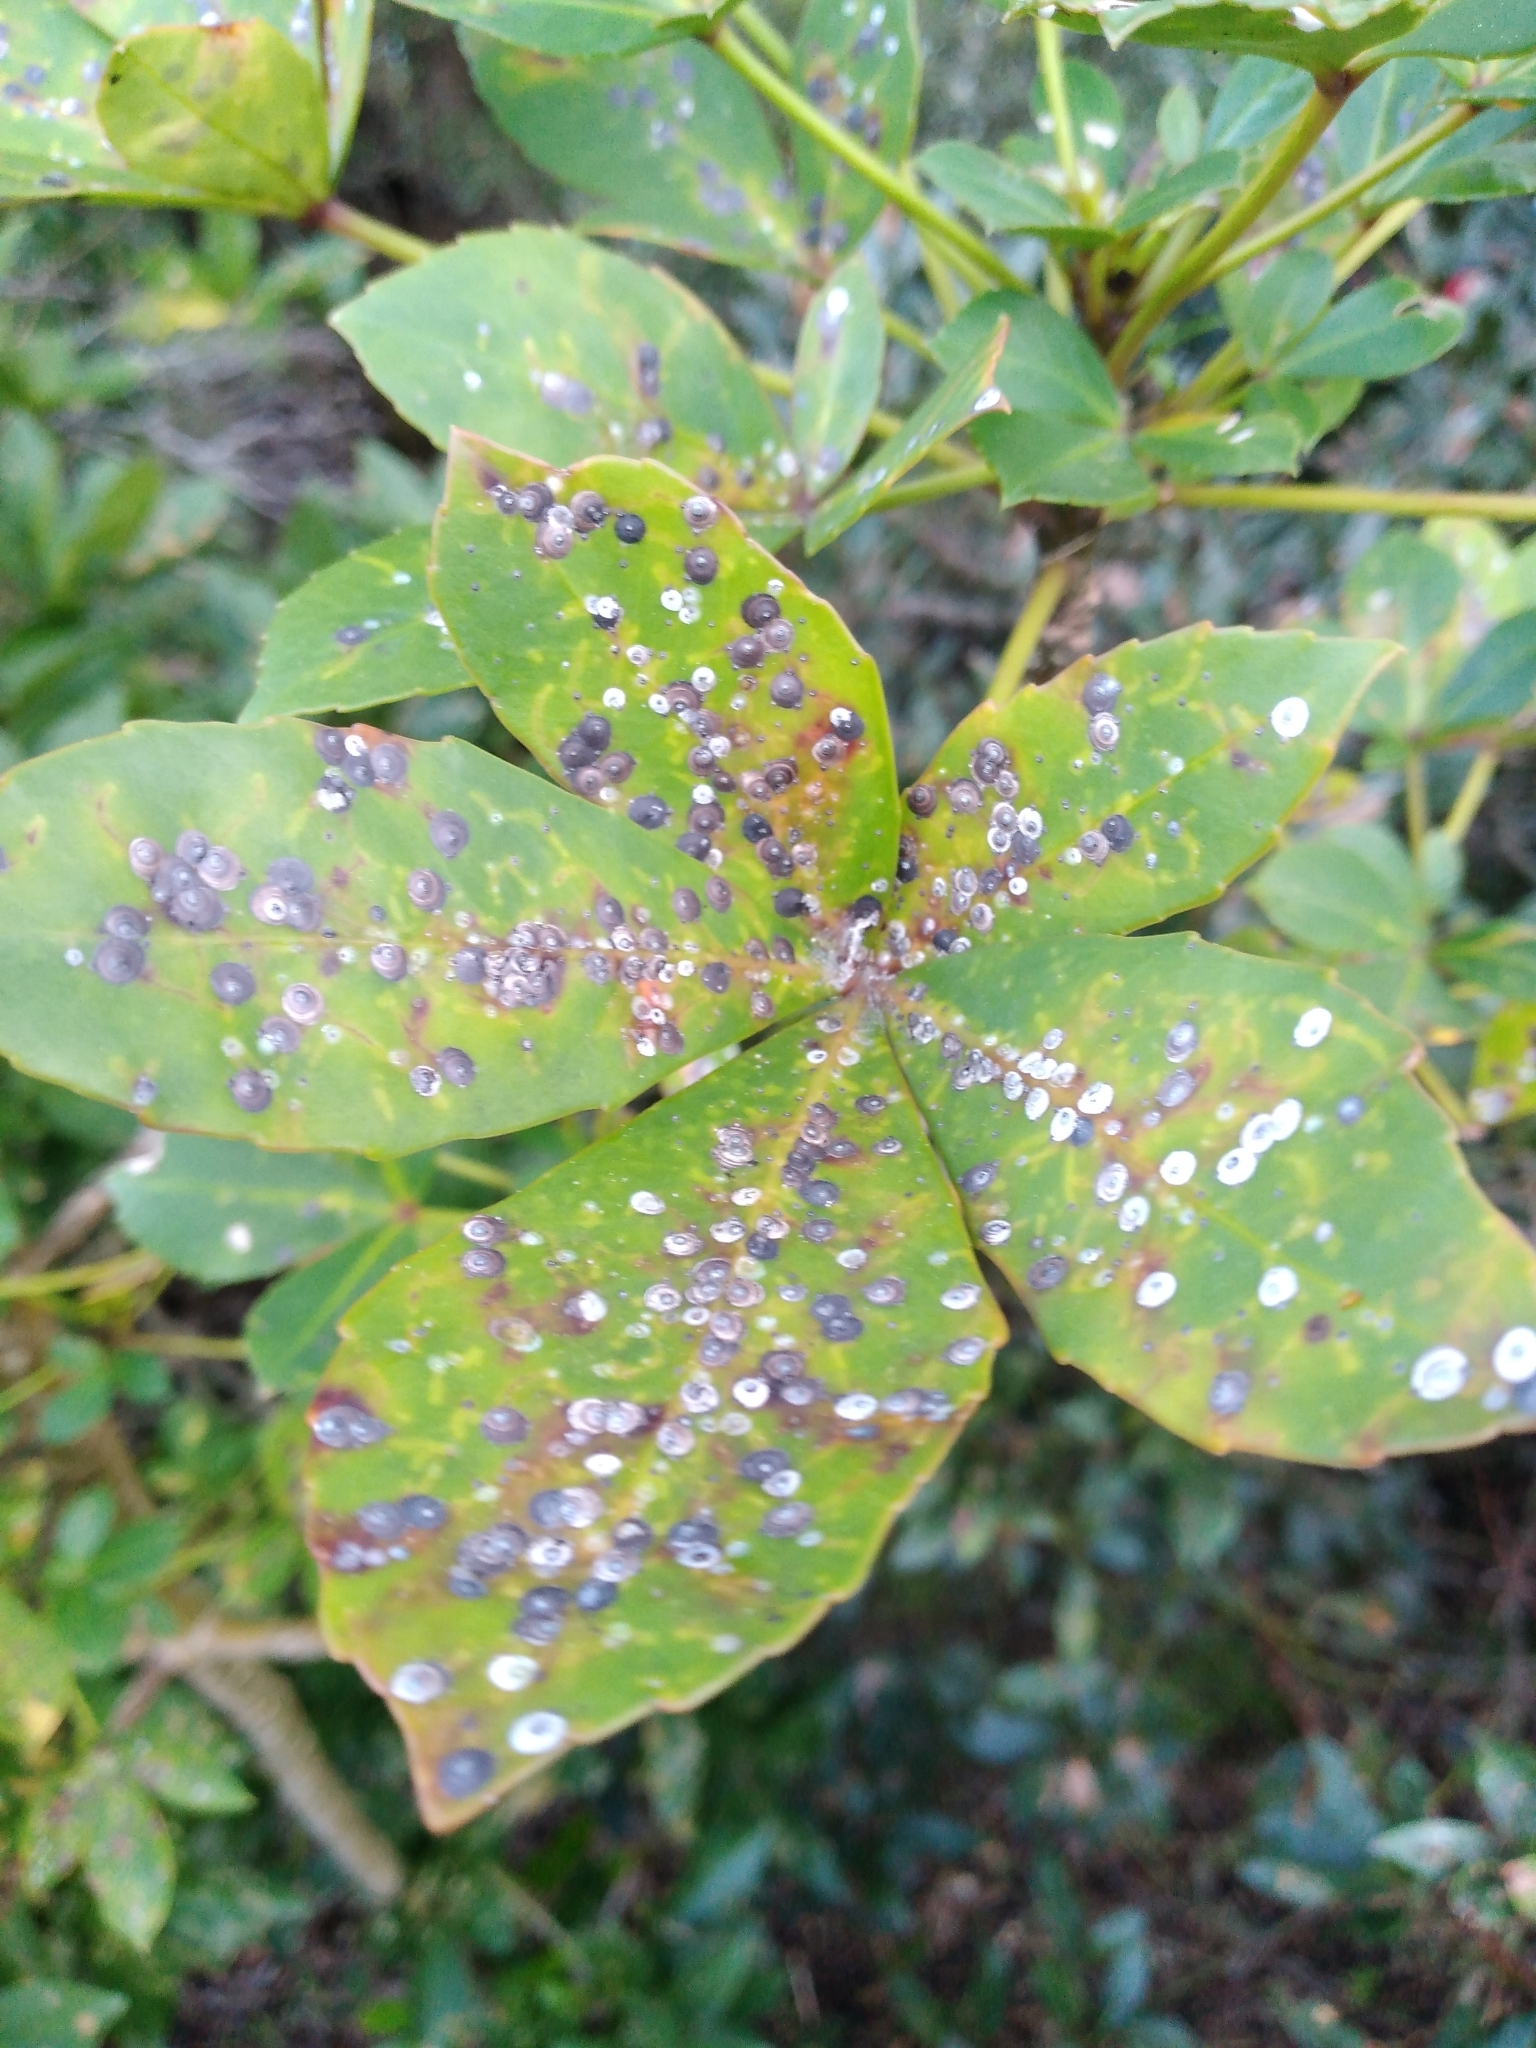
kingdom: Animalia
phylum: Arthropoda
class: Insecta
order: Hemiptera
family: Diaspididae
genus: Lindingaspis
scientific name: Lindingaspis rossi
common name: Araucaria black scale
